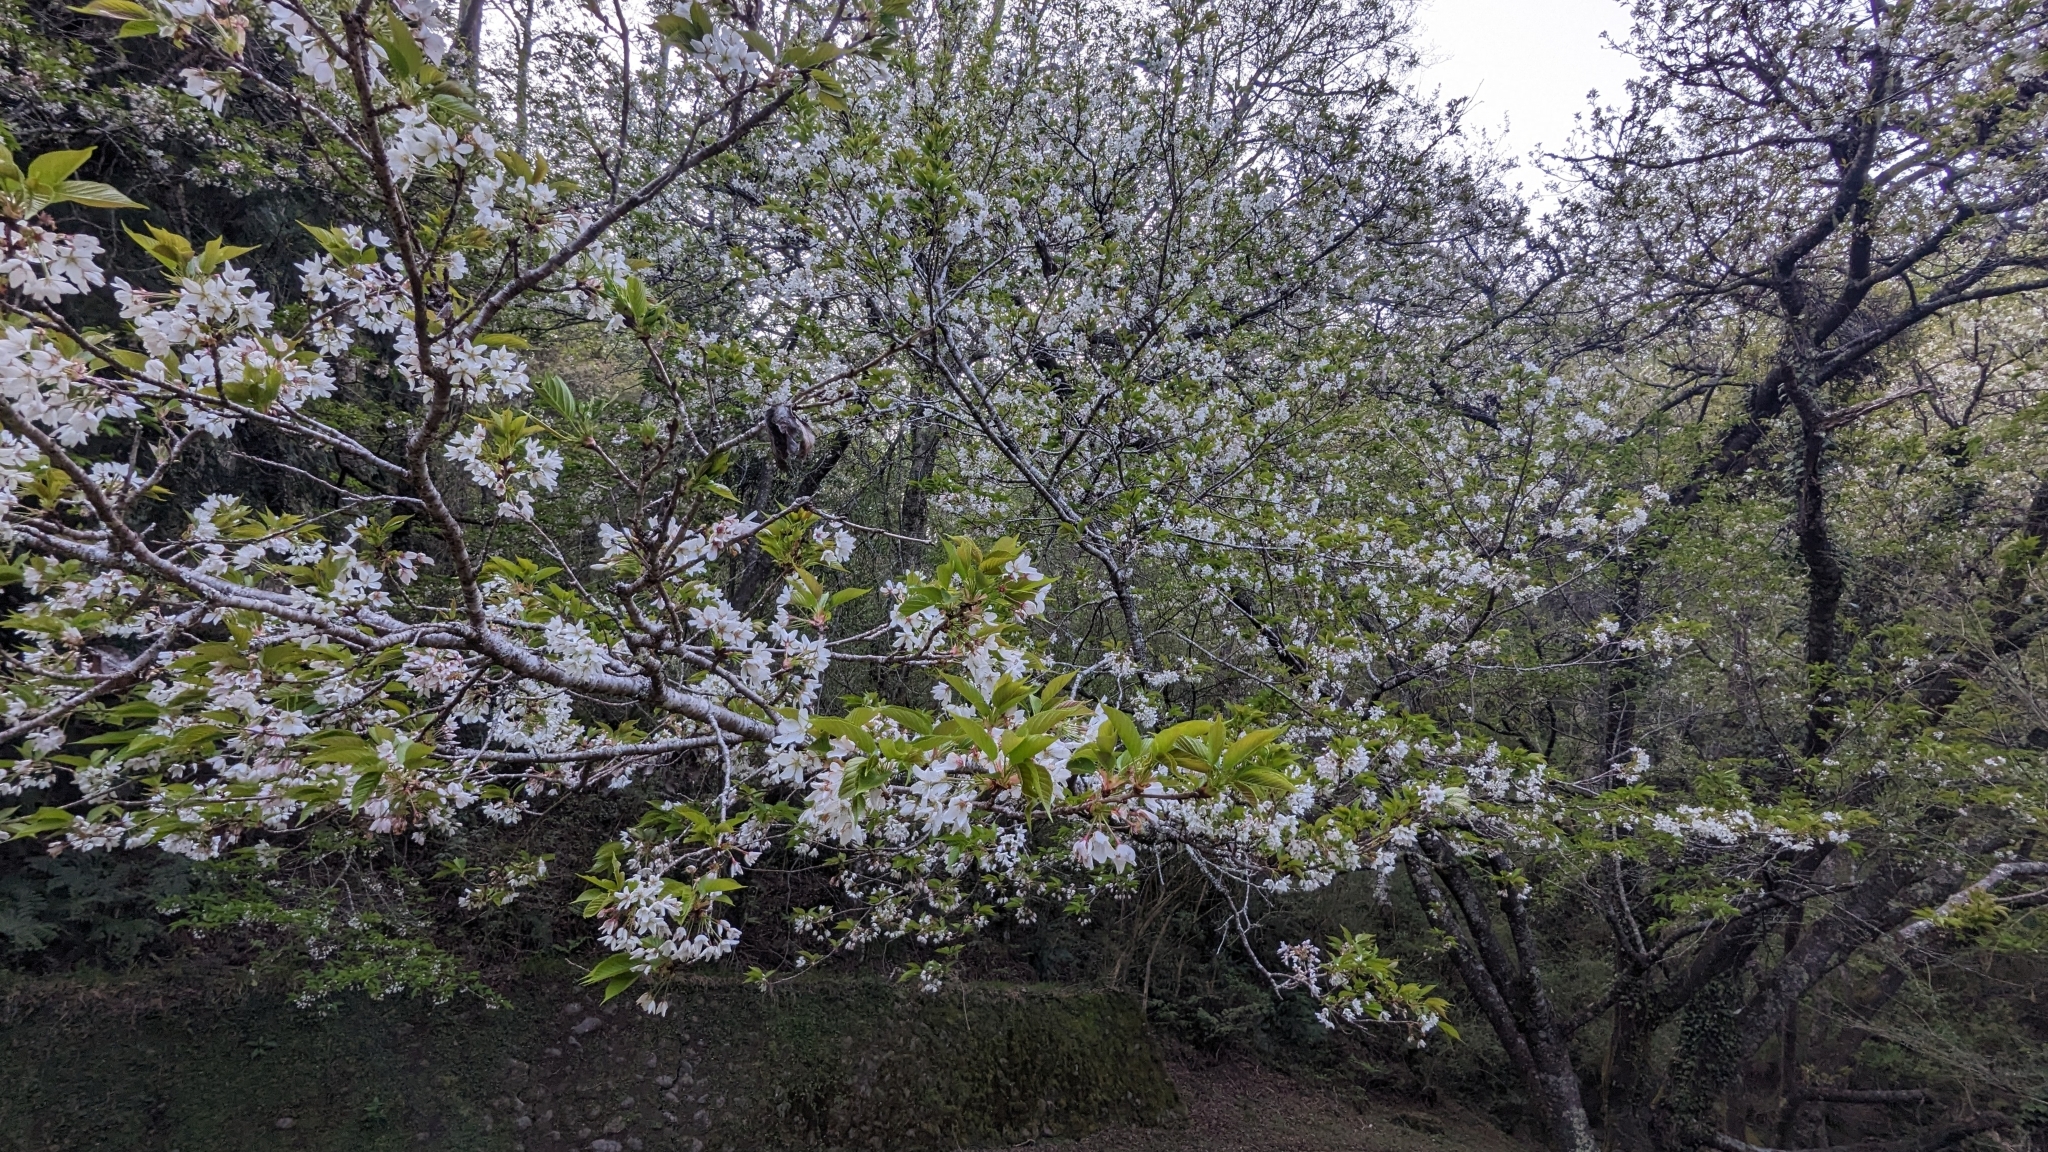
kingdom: Plantae
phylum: Tracheophyta
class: Magnoliopsida
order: Rosales
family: Rosaceae
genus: Prunus
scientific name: Prunus transarisanensis
